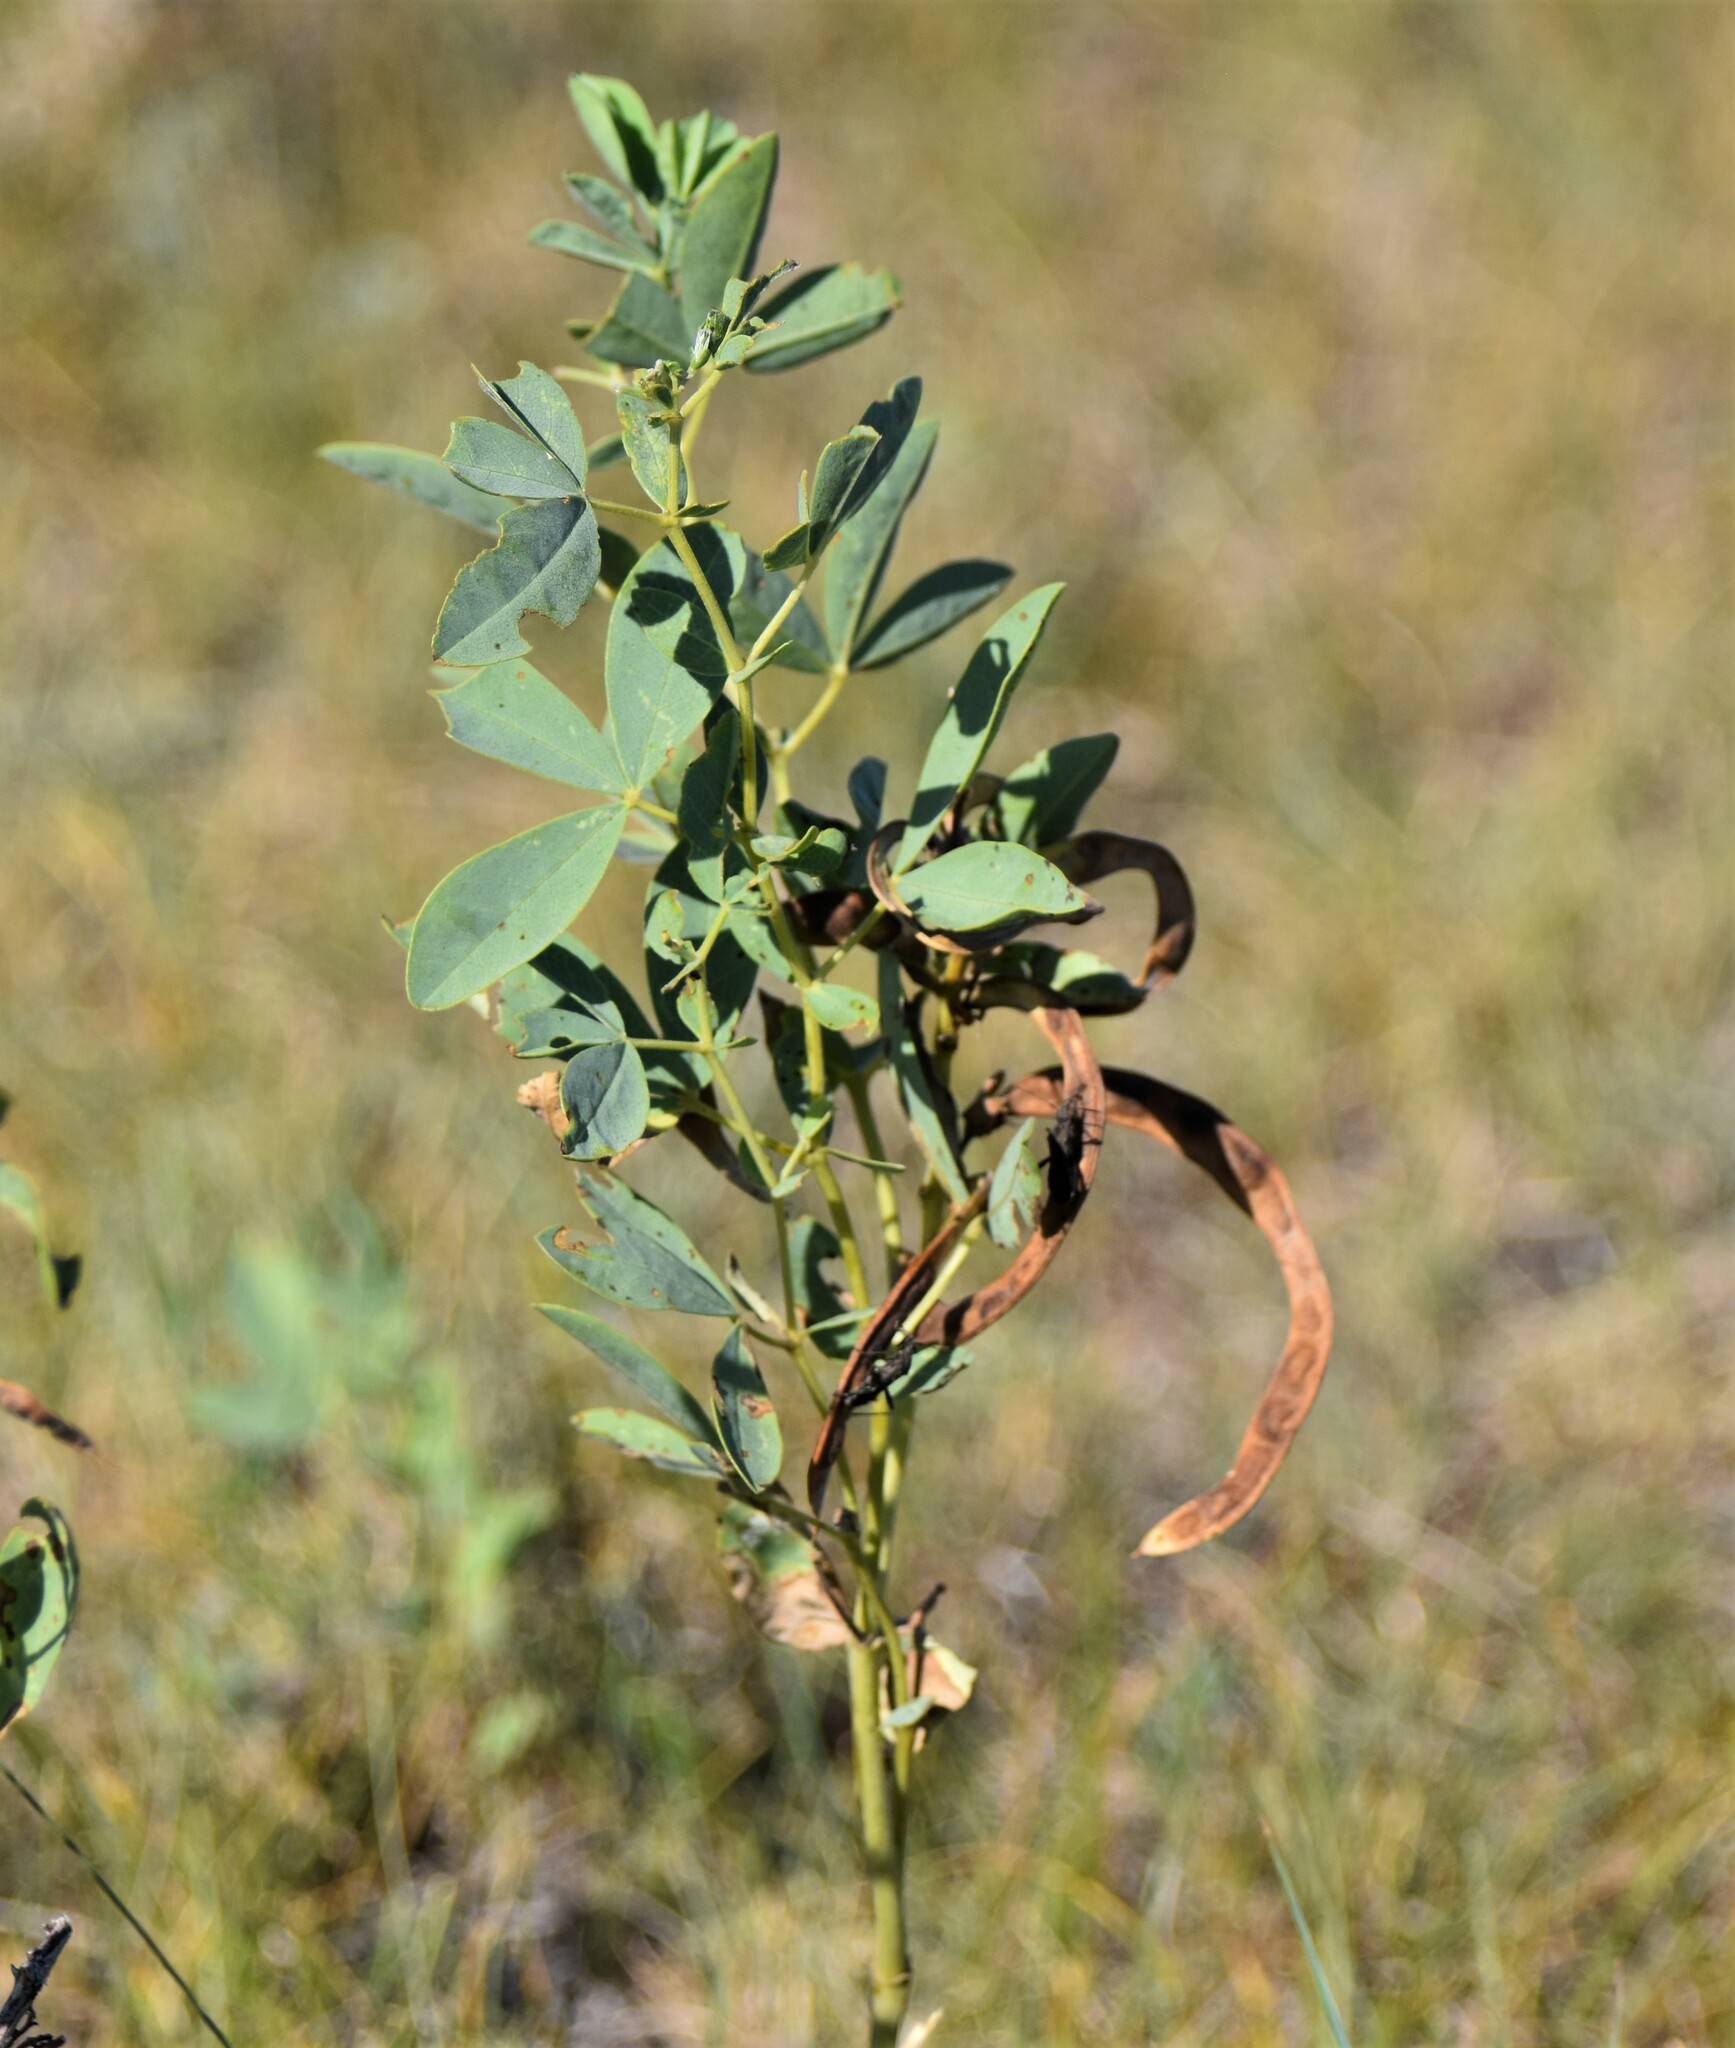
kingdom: Plantae
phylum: Tracheophyta
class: Magnoliopsida
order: Fabales
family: Fabaceae
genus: Thermopsis
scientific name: Thermopsis rhombifolia
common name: Circle-pod-pea
